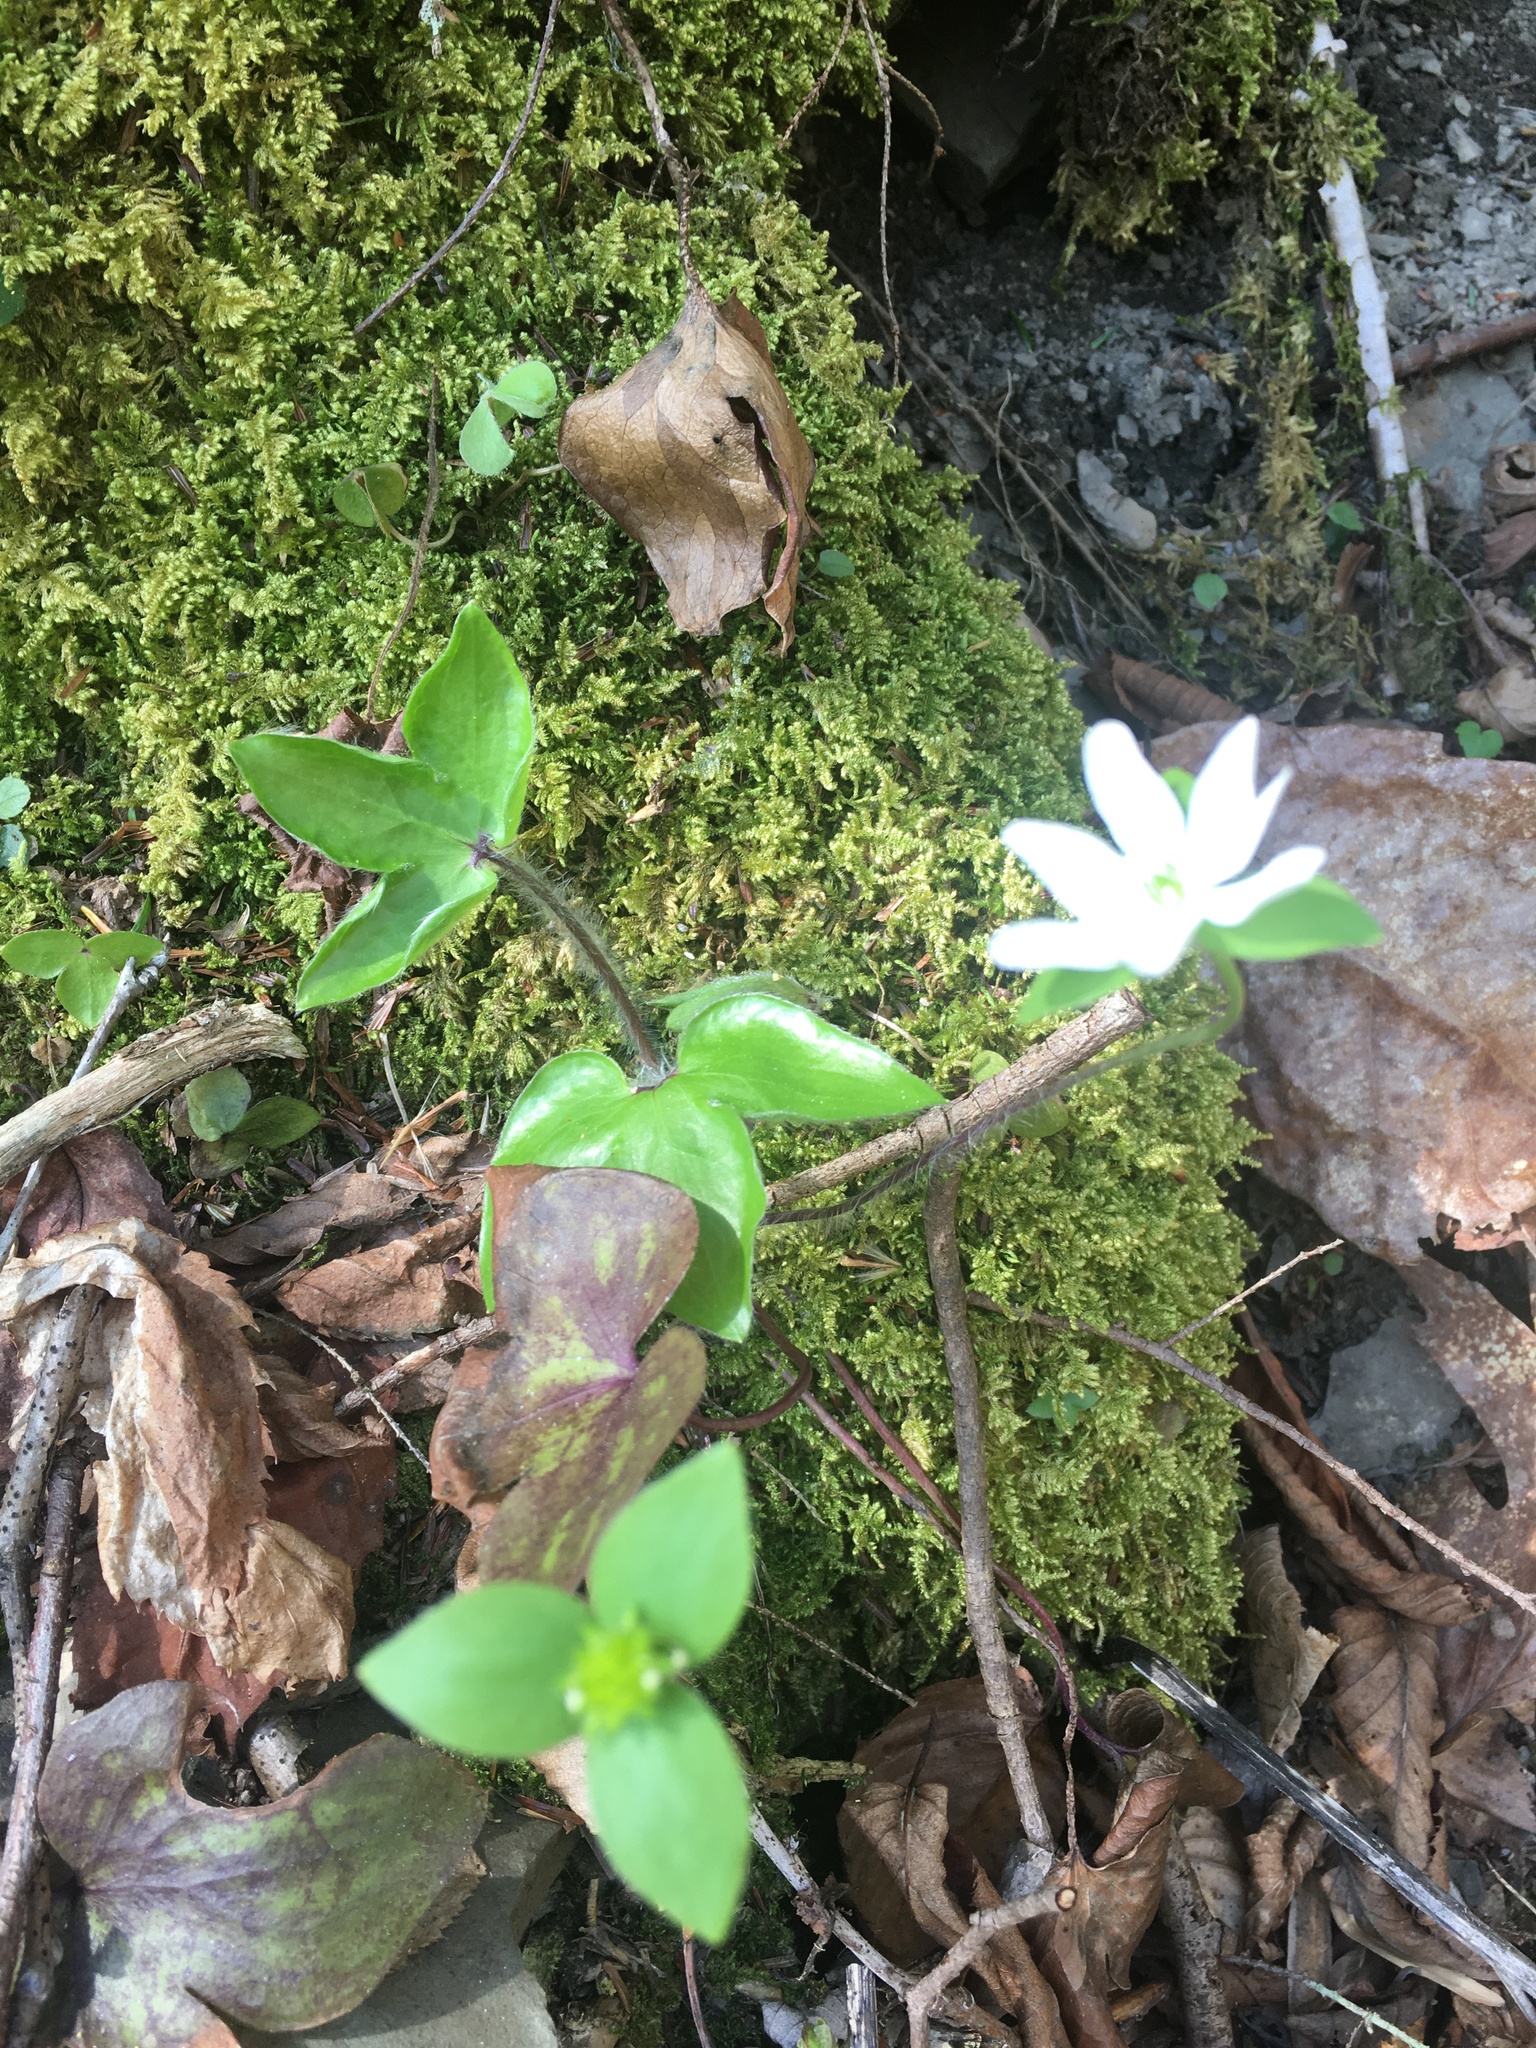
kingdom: Plantae
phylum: Tracheophyta
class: Magnoliopsida
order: Ranunculales
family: Ranunculaceae
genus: Hepatica
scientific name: Hepatica acutiloba
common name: Sharp-lobed hepatica
